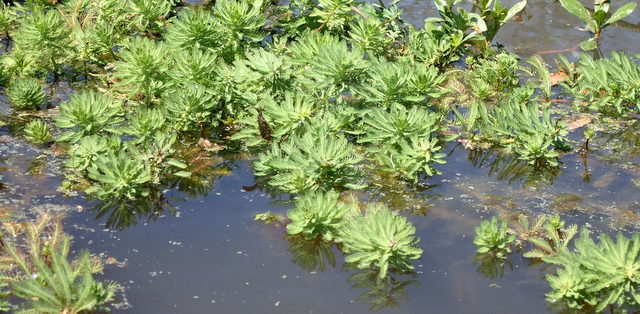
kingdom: Plantae
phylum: Tracheophyta
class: Magnoliopsida
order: Saxifragales
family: Haloragaceae
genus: Myriophyllum
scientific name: Myriophyllum aquaticum
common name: Parrot's feather
